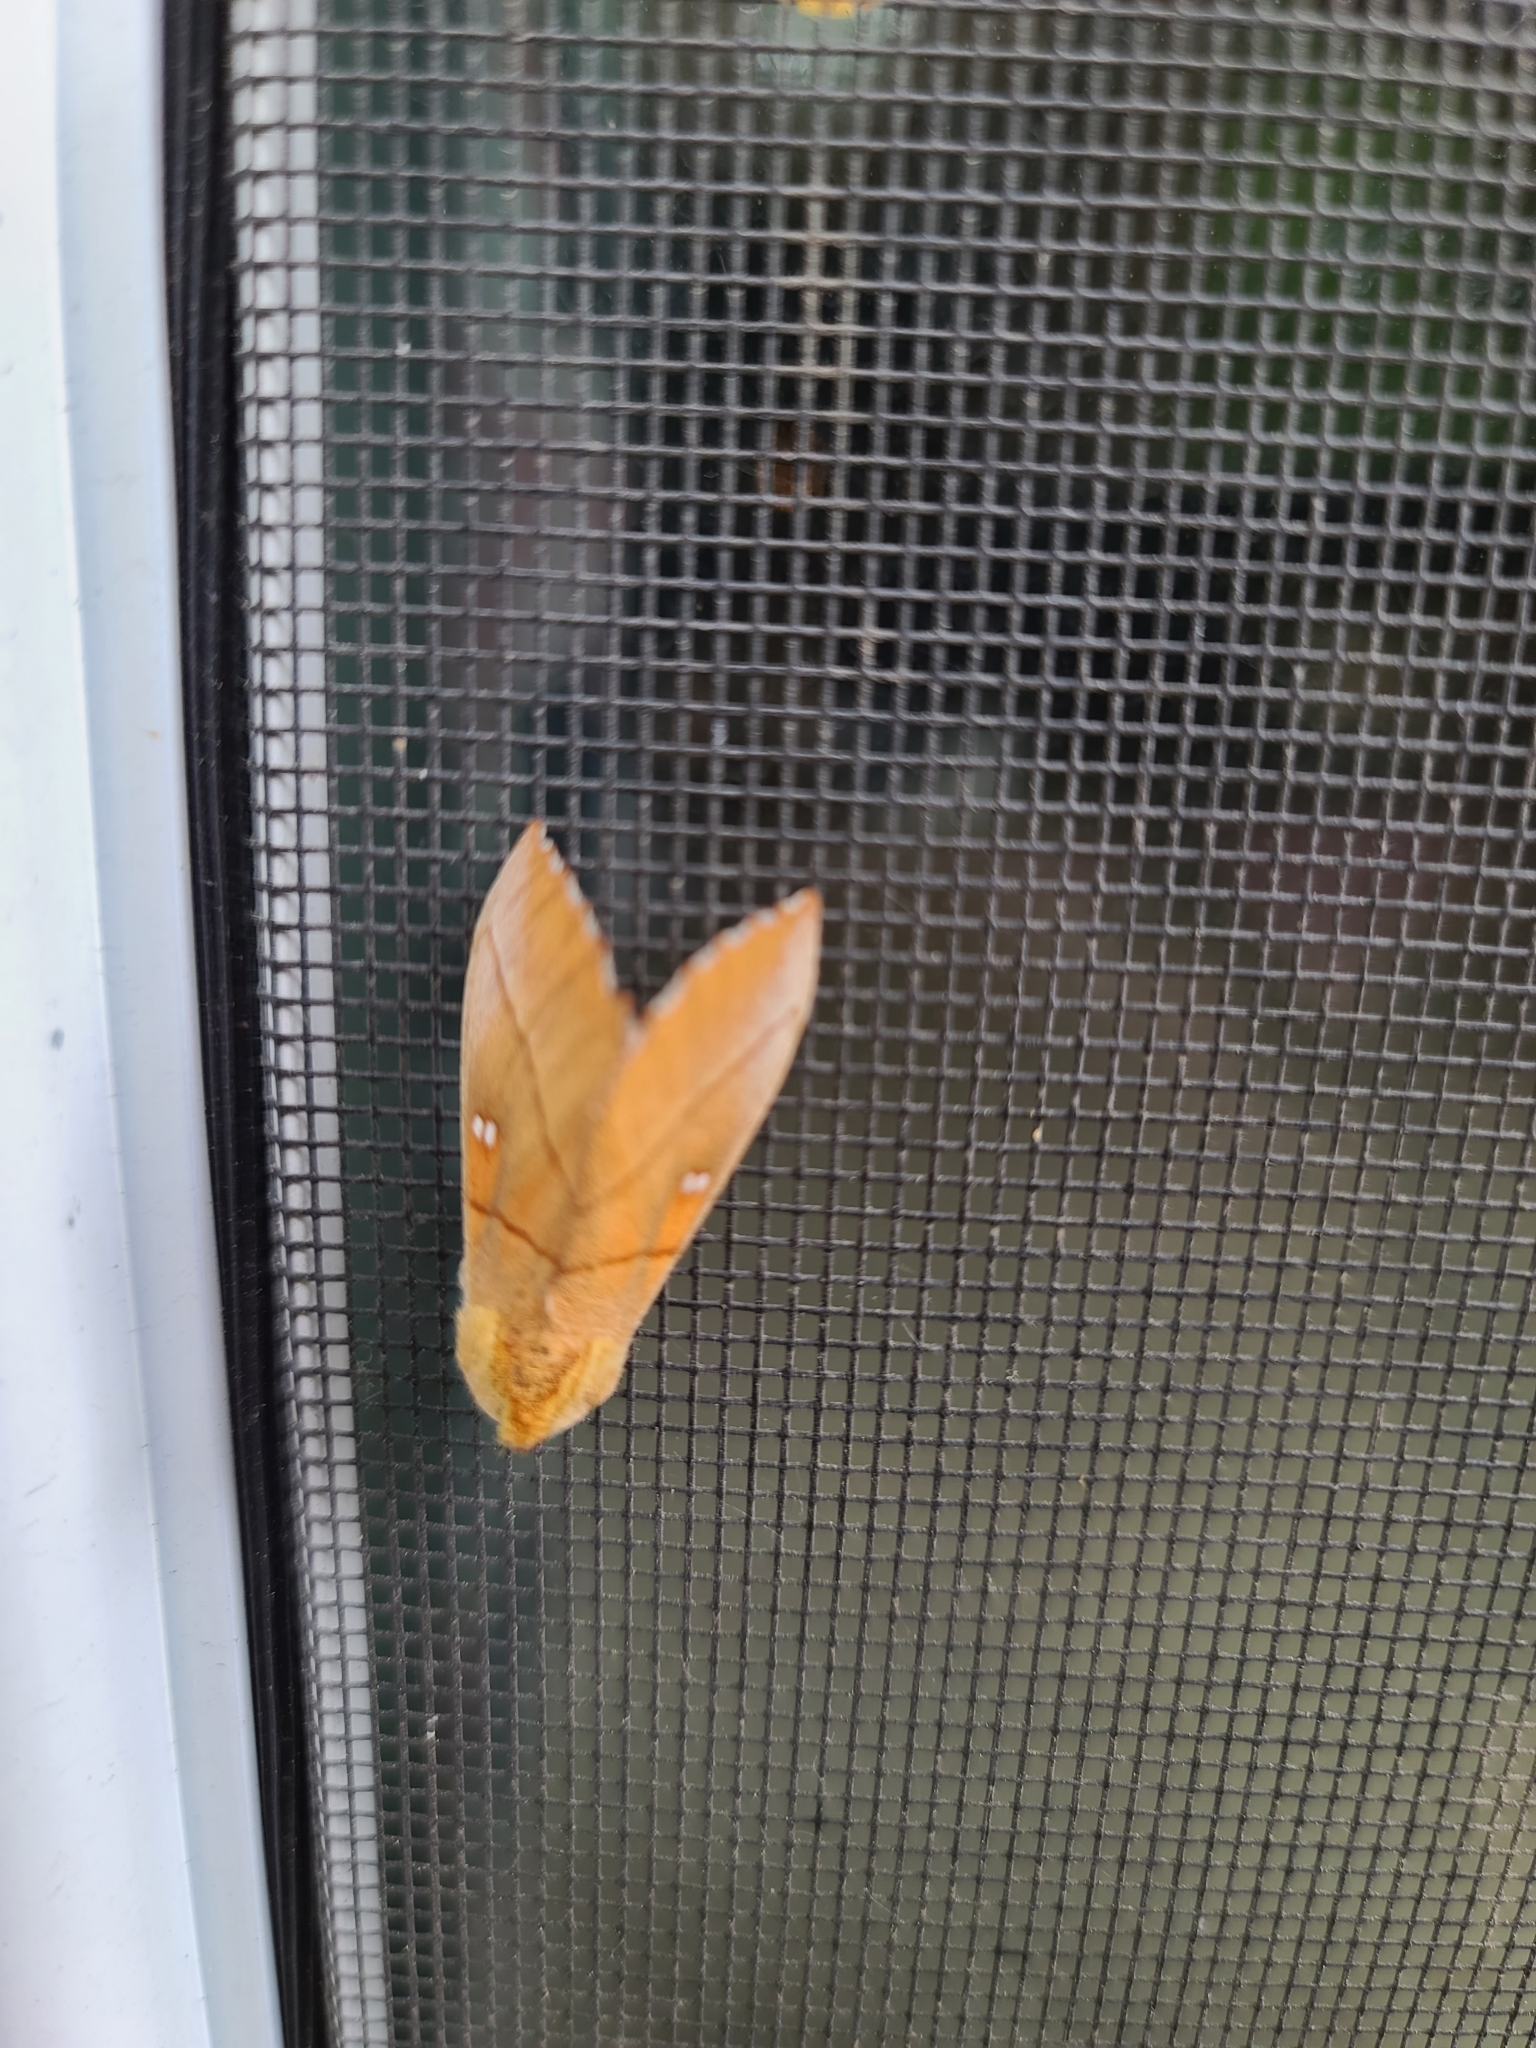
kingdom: Animalia
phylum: Arthropoda
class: Insecta
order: Lepidoptera
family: Notodontidae
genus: Nadata
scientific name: Nadata gibbosa
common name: White-dotted prominent
